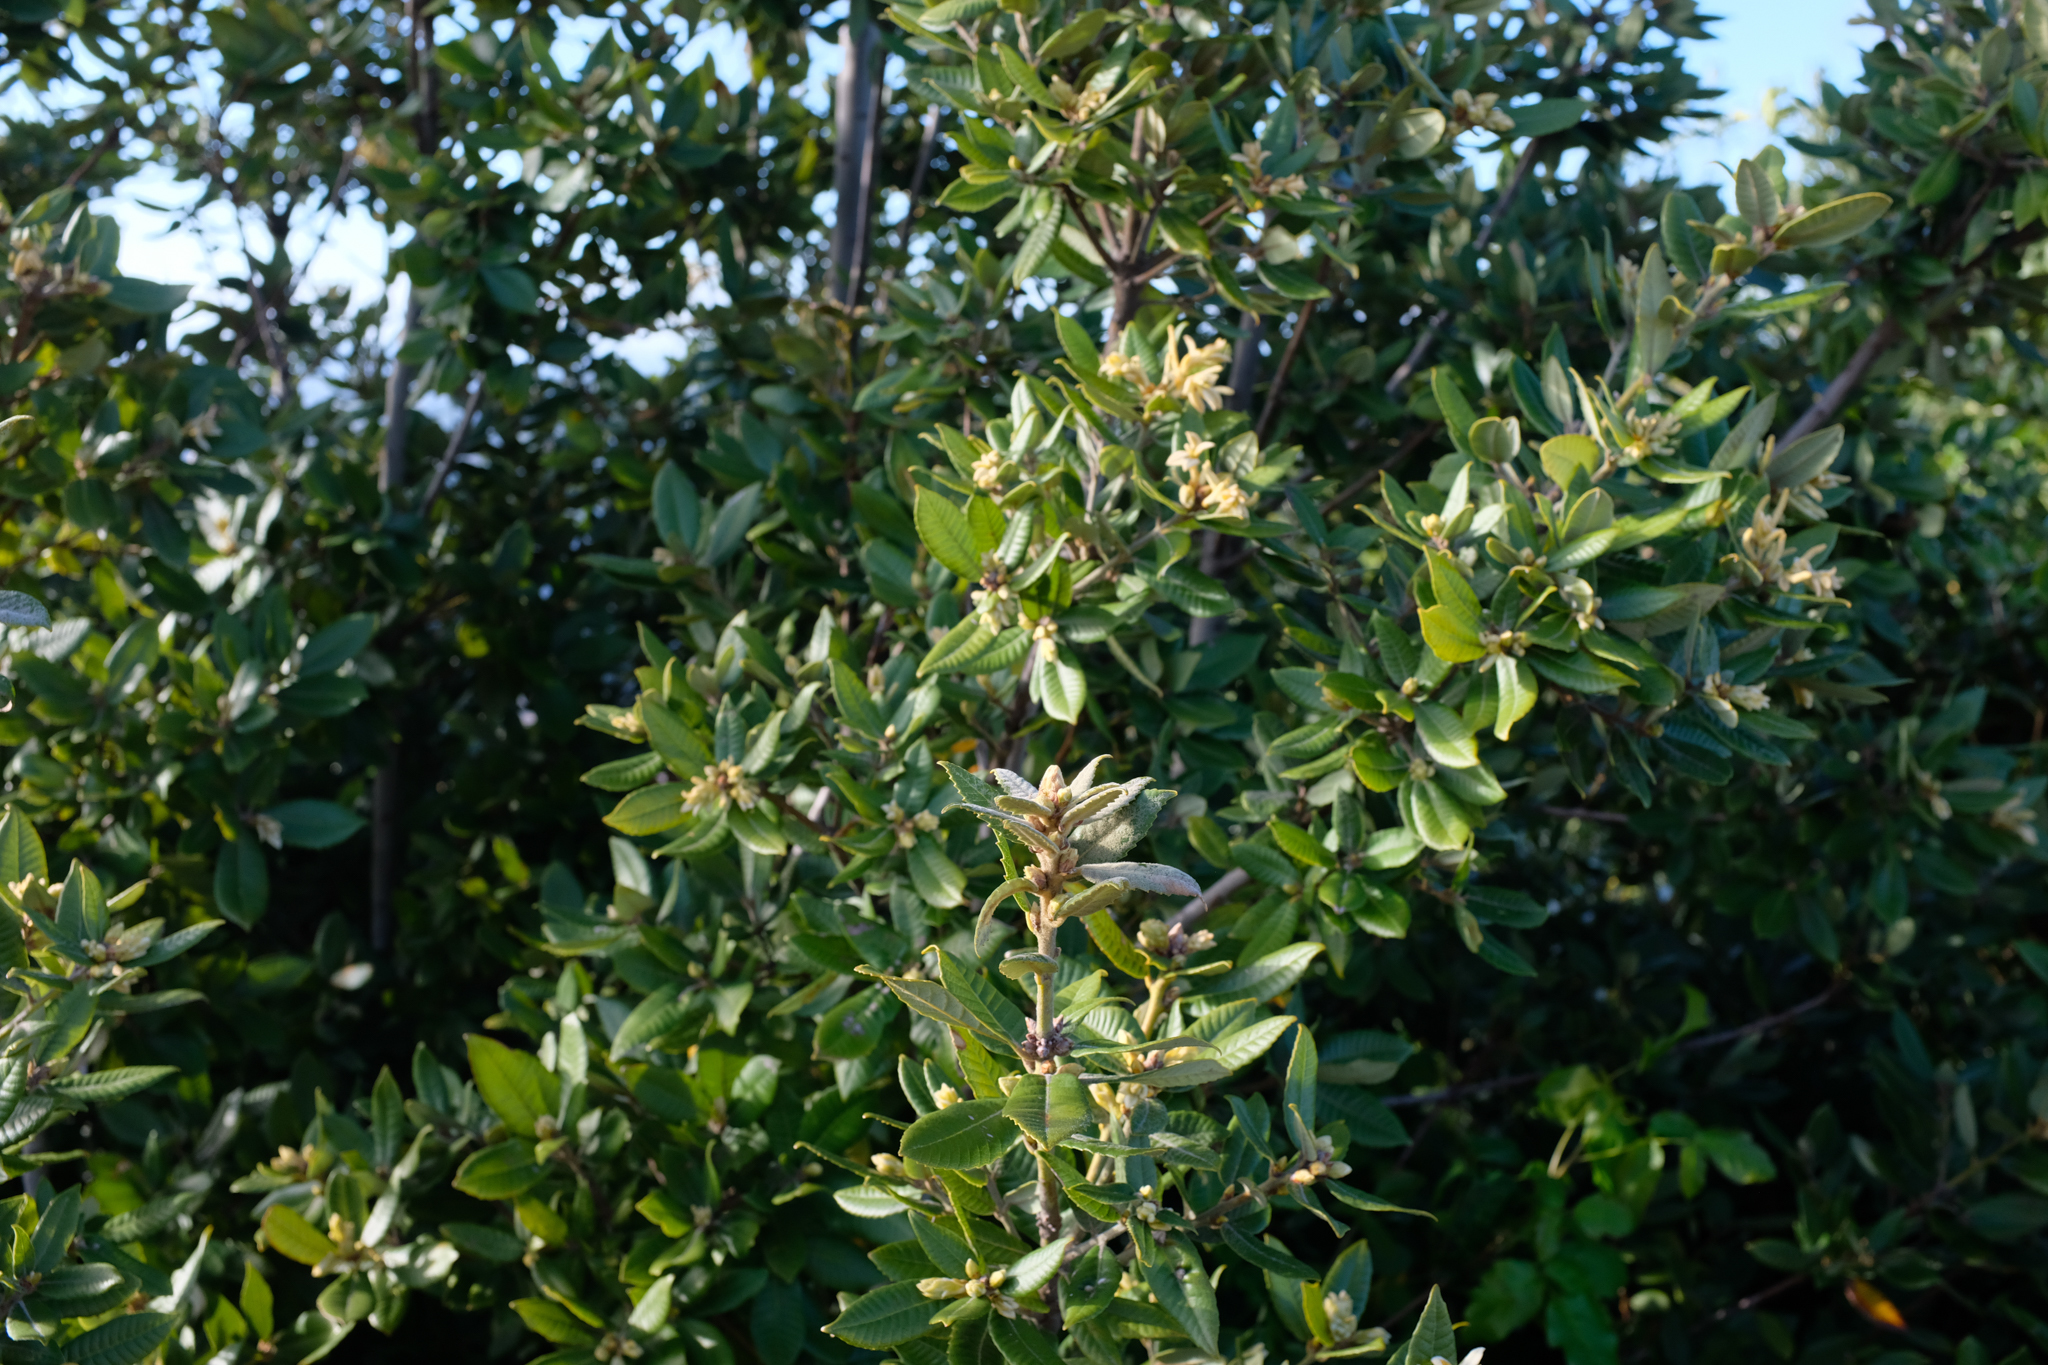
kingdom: Plantae
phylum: Tracheophyta
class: Magnoliopsida
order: Fagales
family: Fagaceae
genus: Notholithocarpus
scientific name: Notholithocarpus densiflorus
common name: Tan bark oak
